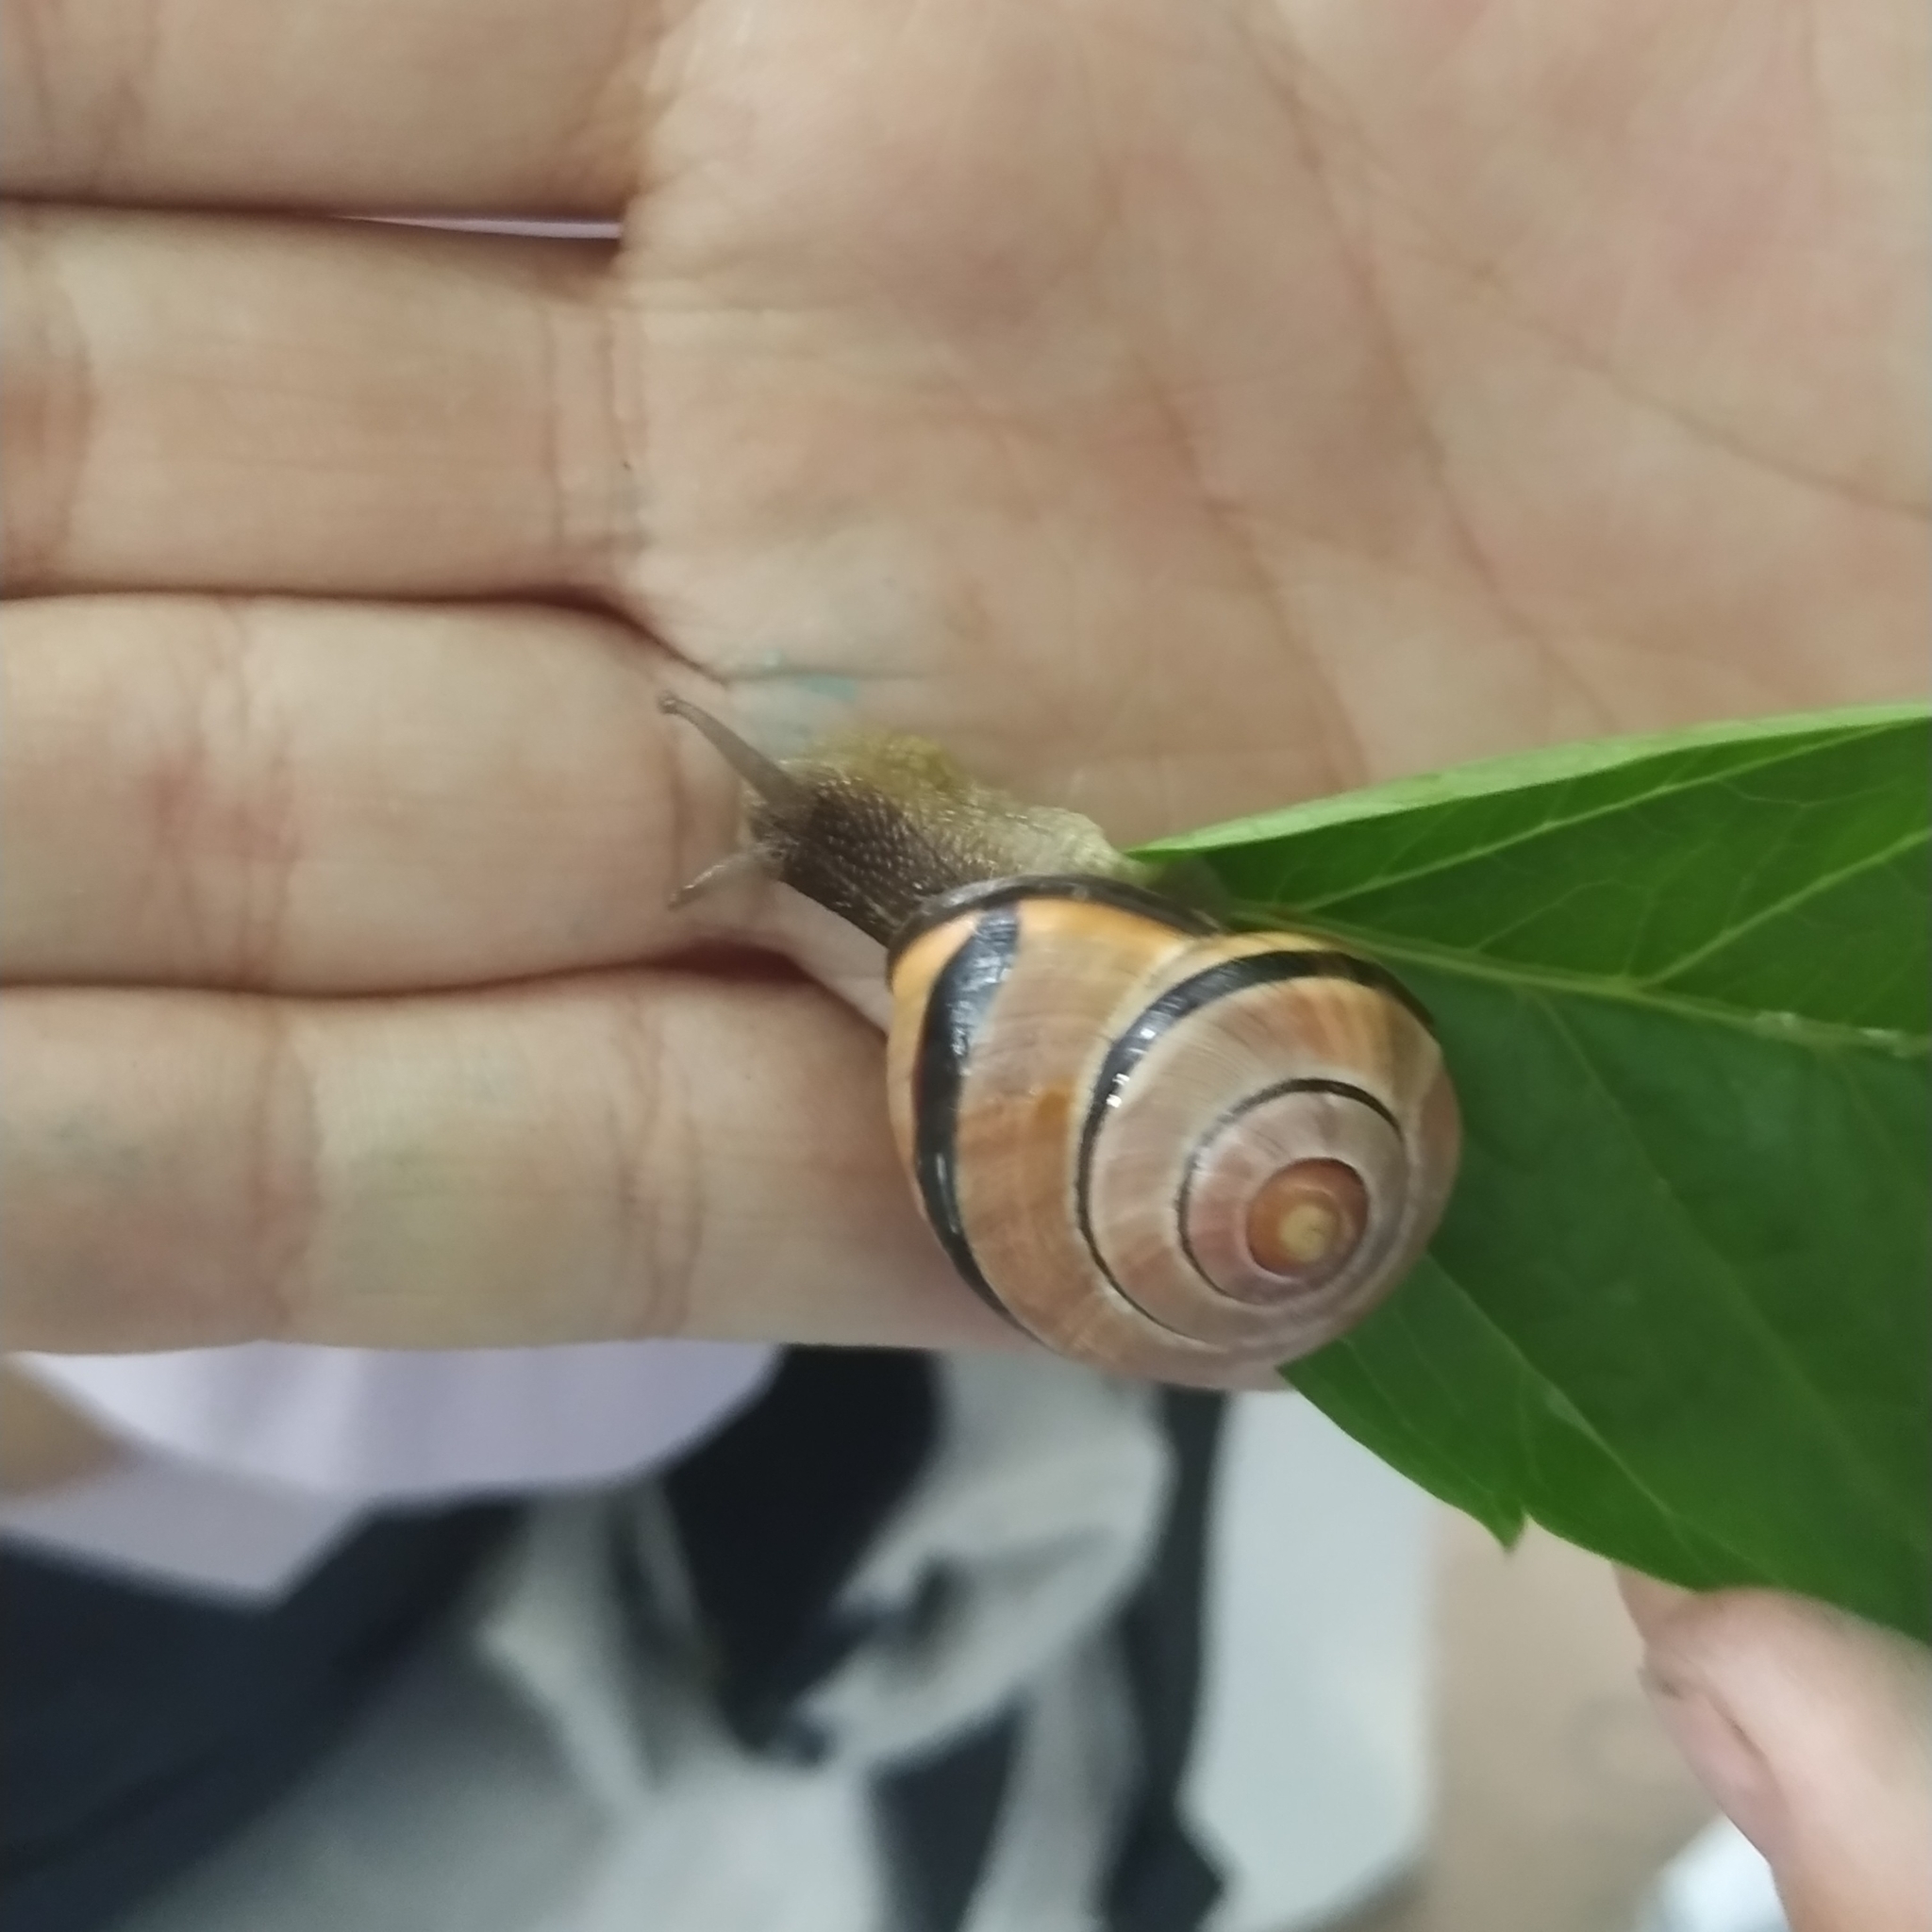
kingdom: Animalia
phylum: Mollusca
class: Gastropoda
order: Stylommatophora
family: Helicidae
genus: Cepaea
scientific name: Cepaea nemoralis
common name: Grovesnail
